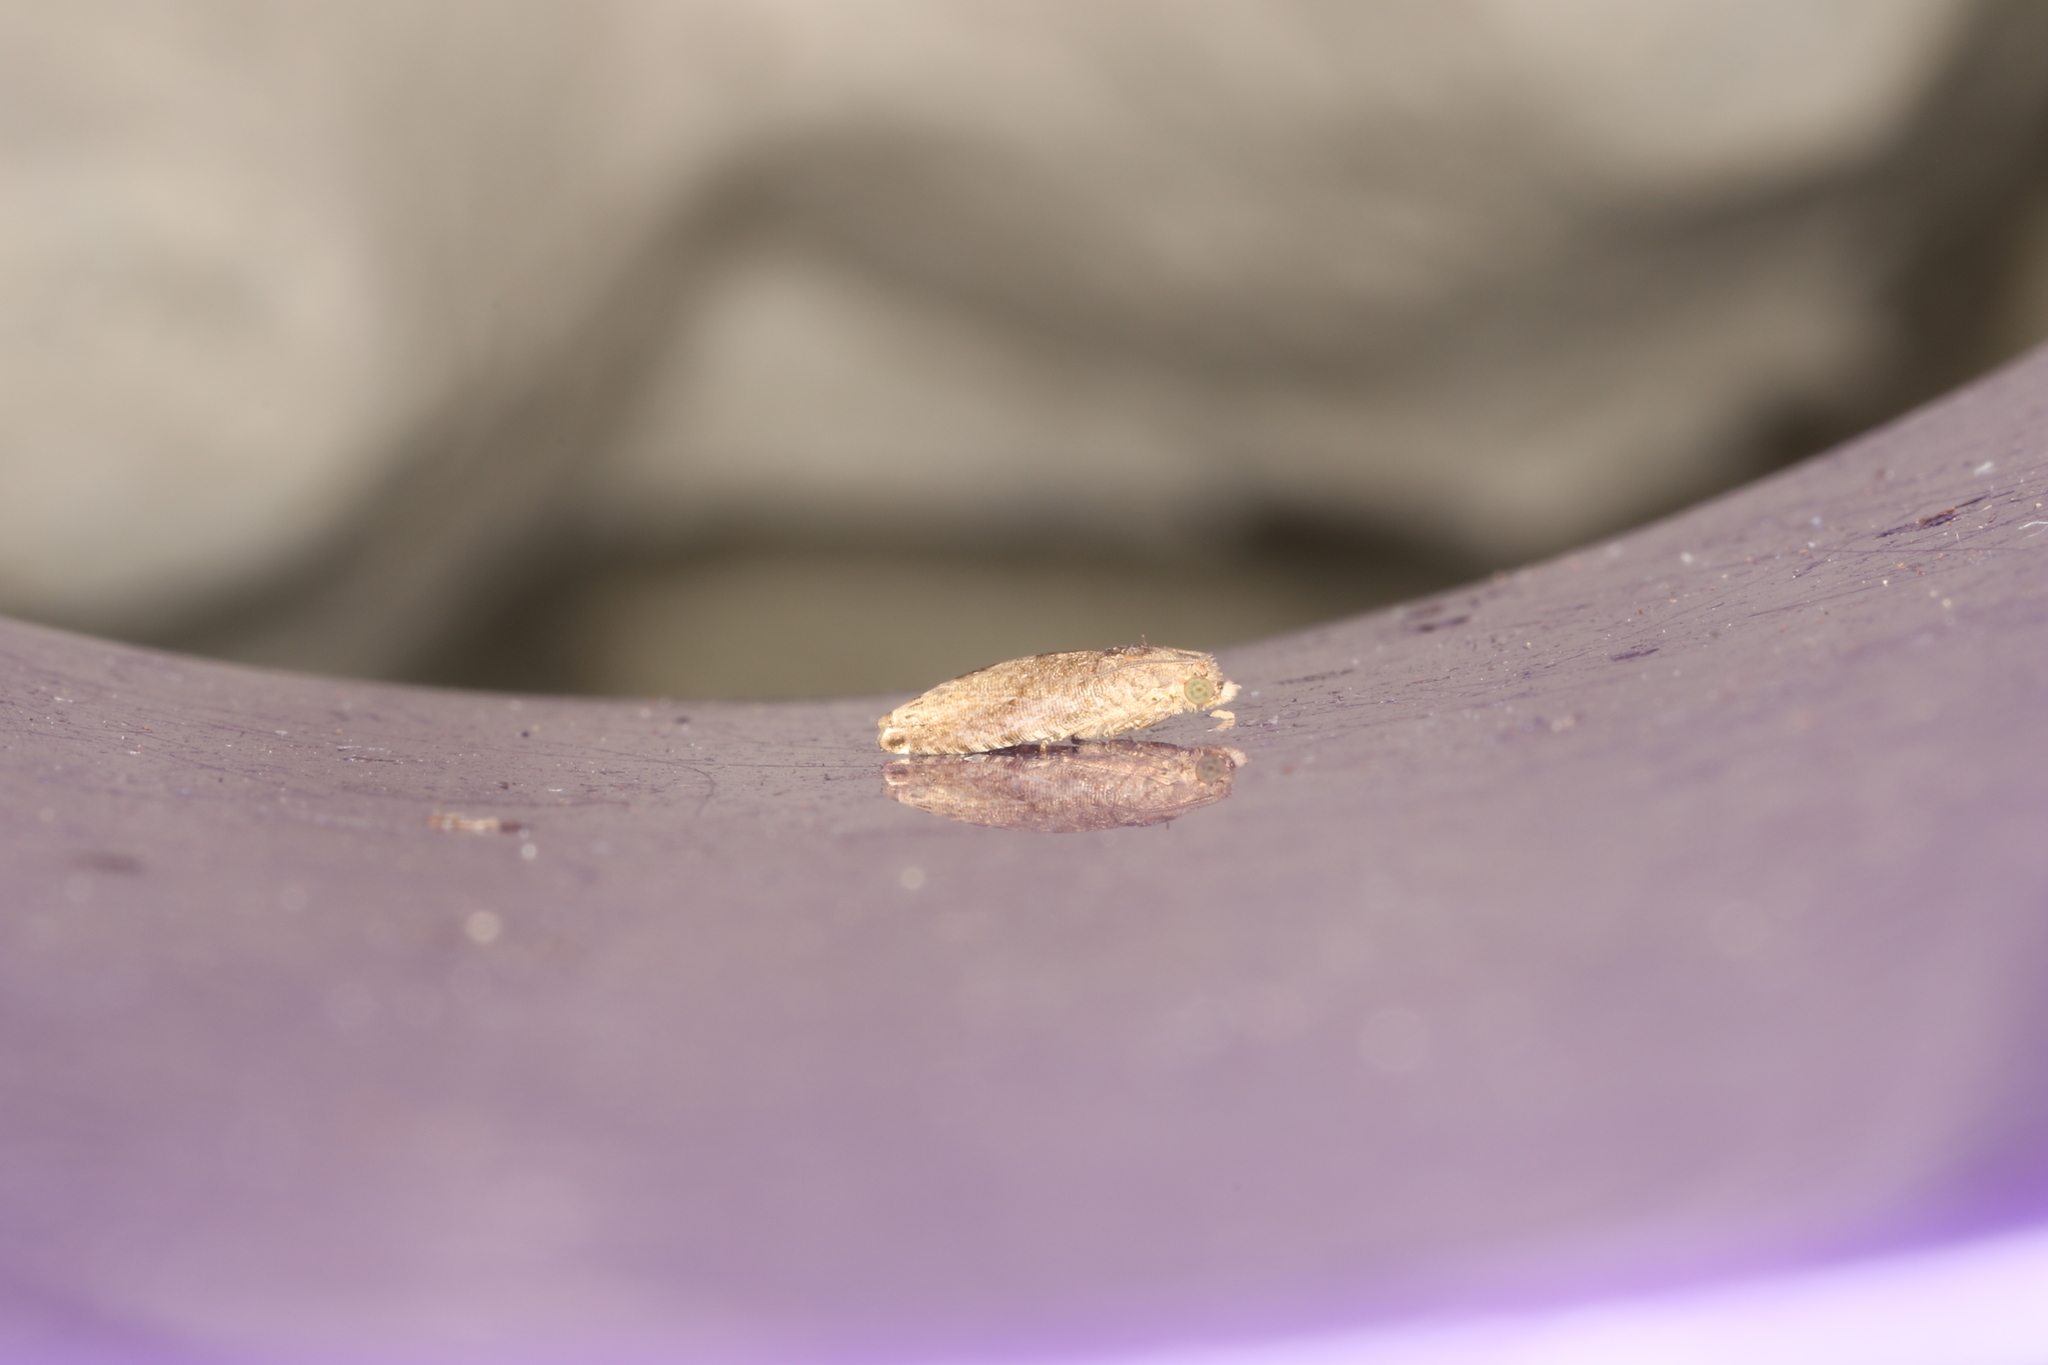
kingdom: Animalia
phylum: Arthropoda
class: Insecta
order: Lepidoptera
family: Tortricidae
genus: Crocidosema
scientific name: Crocidosema plebejana
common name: Southern bell
